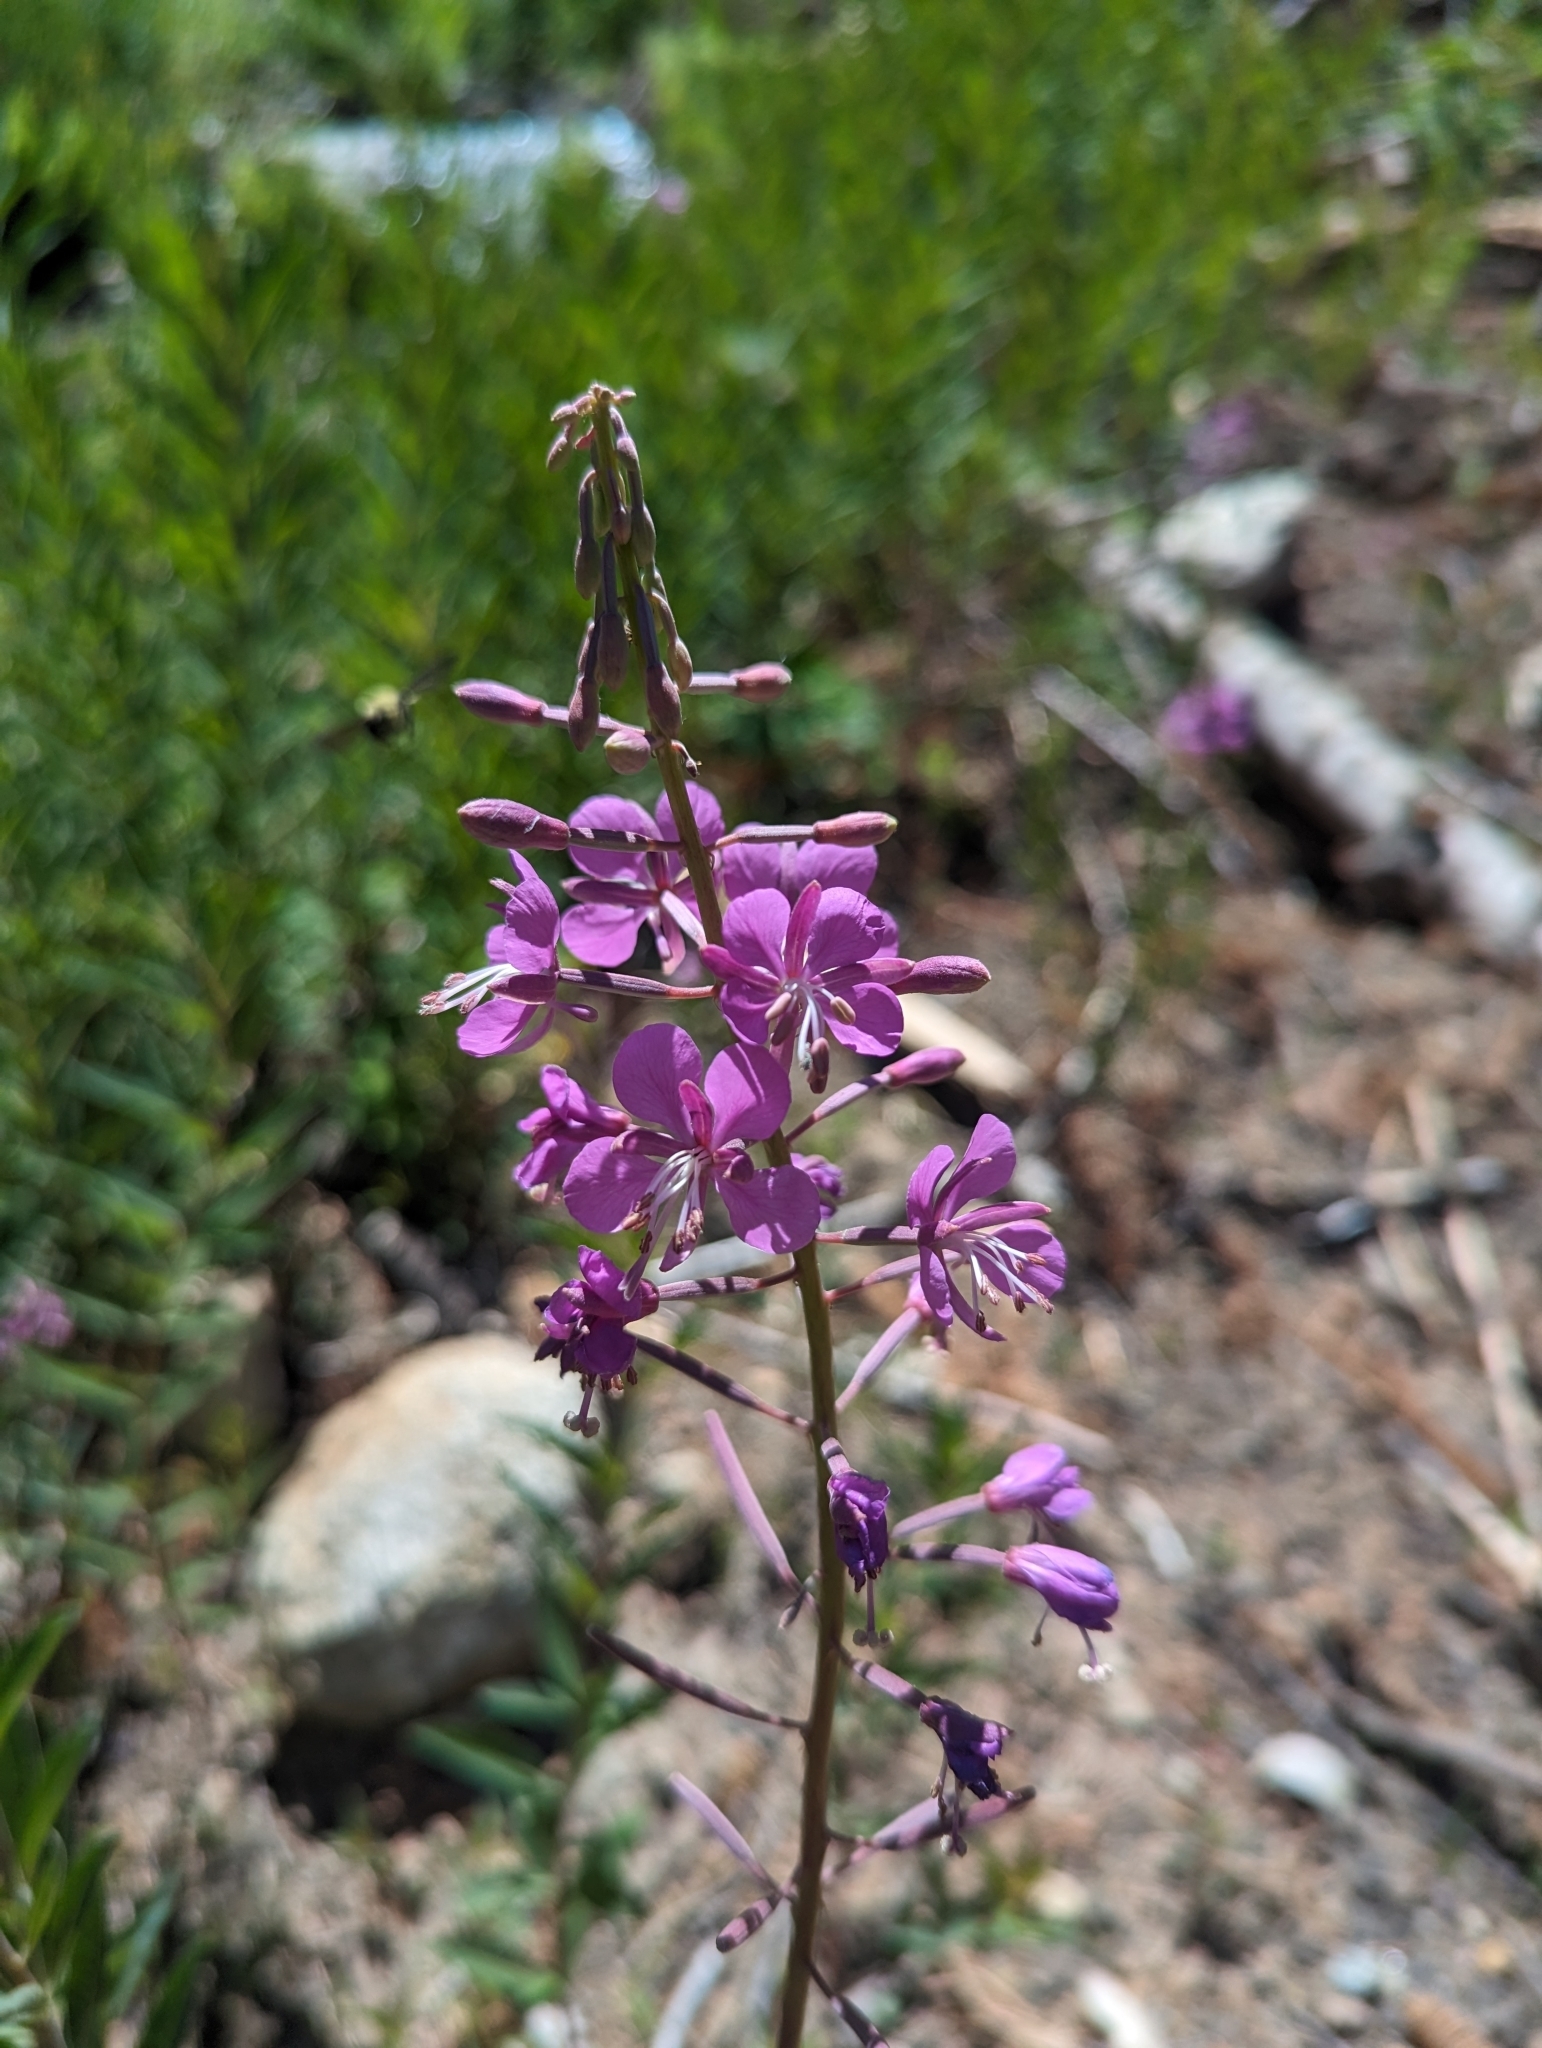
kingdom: Plantae
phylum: Tracheophyta
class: Magnoliopsida
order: Myrtales
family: Onagraceae
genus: Chamaenerion
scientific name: Chamaenerion angustifolium
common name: Fireweed
